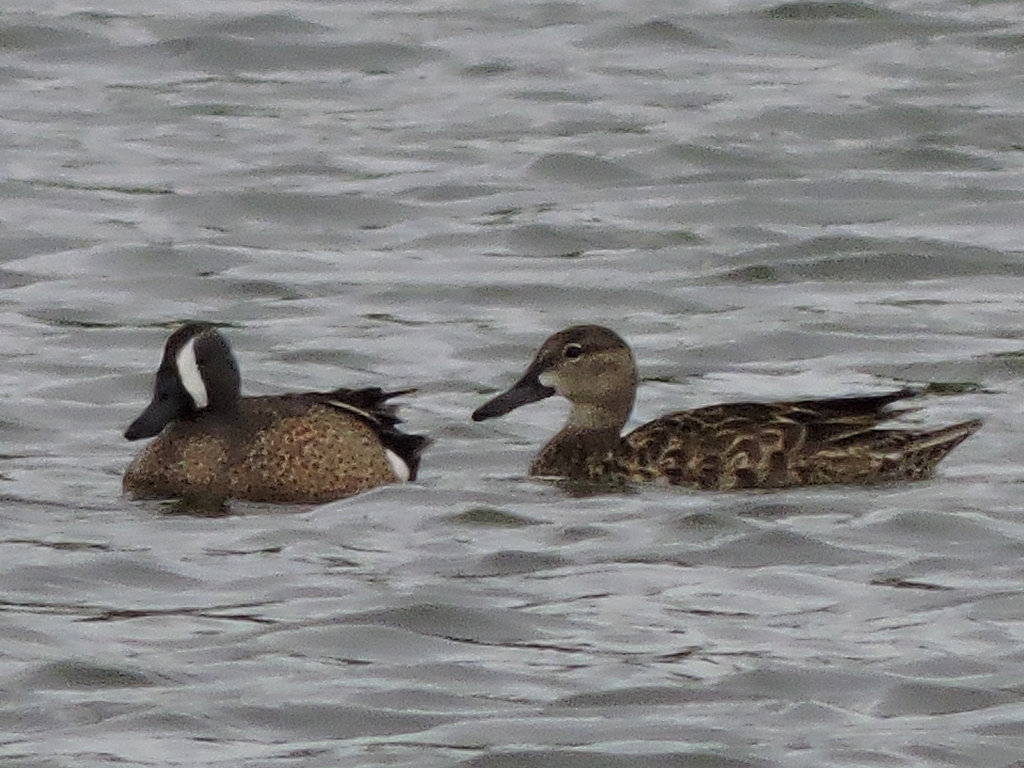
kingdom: Animalia
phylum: Chordata
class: Aves
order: Anseriformes
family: Anatidae
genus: Spatula
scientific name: Spatula discors
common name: Blue-winged teal
